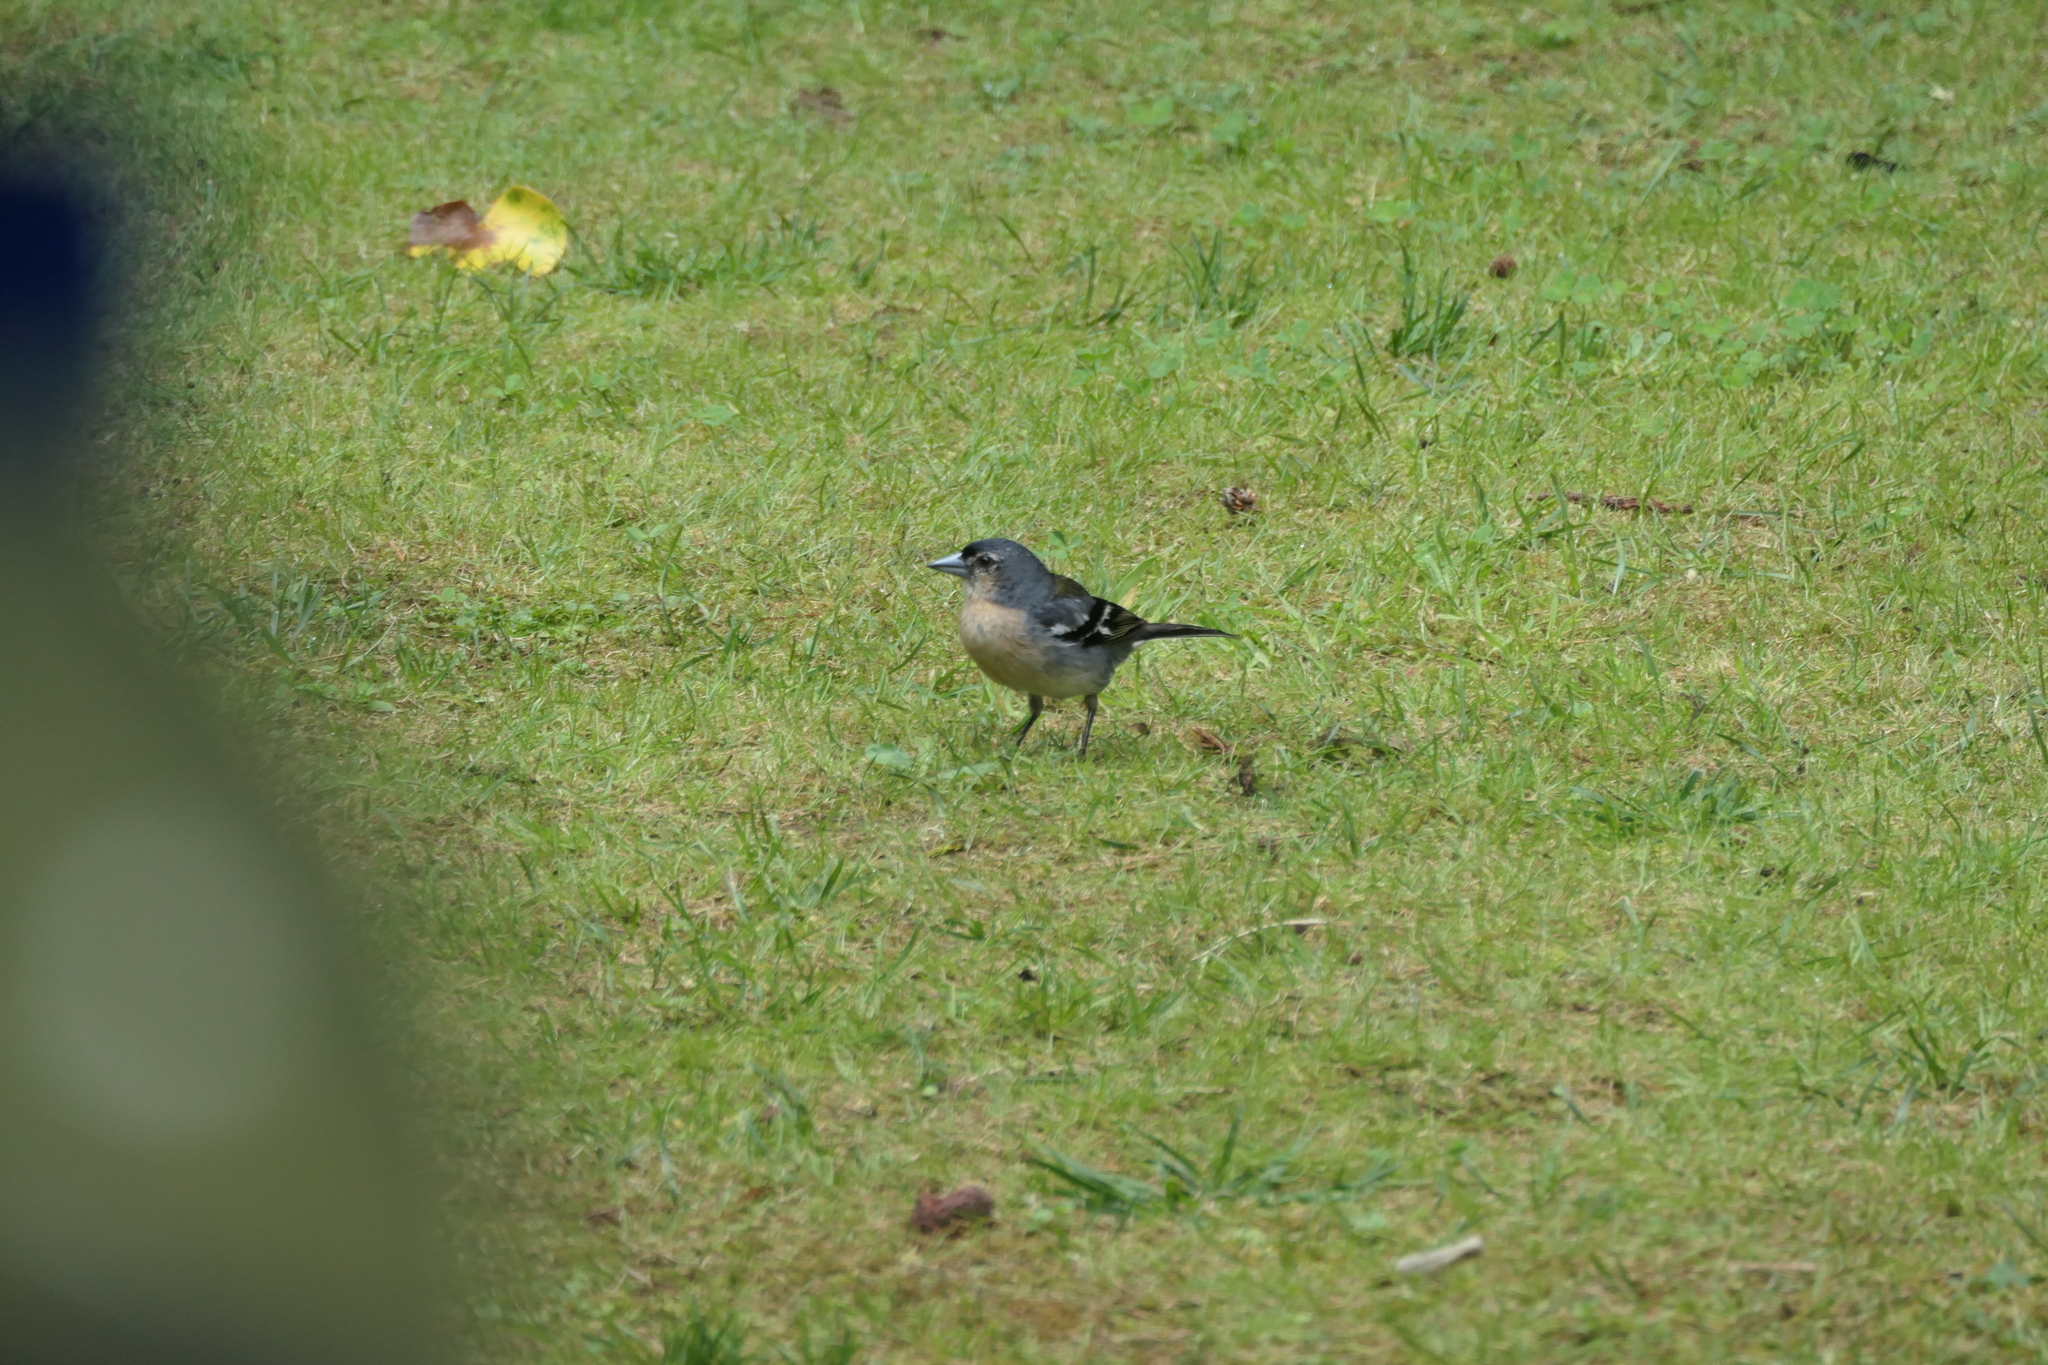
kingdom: Animalia
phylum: Chordata
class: Aves
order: Passeriformes
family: Fringillidae
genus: Fringilla
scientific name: Fringilla moreletti
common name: Azores chaffinch
